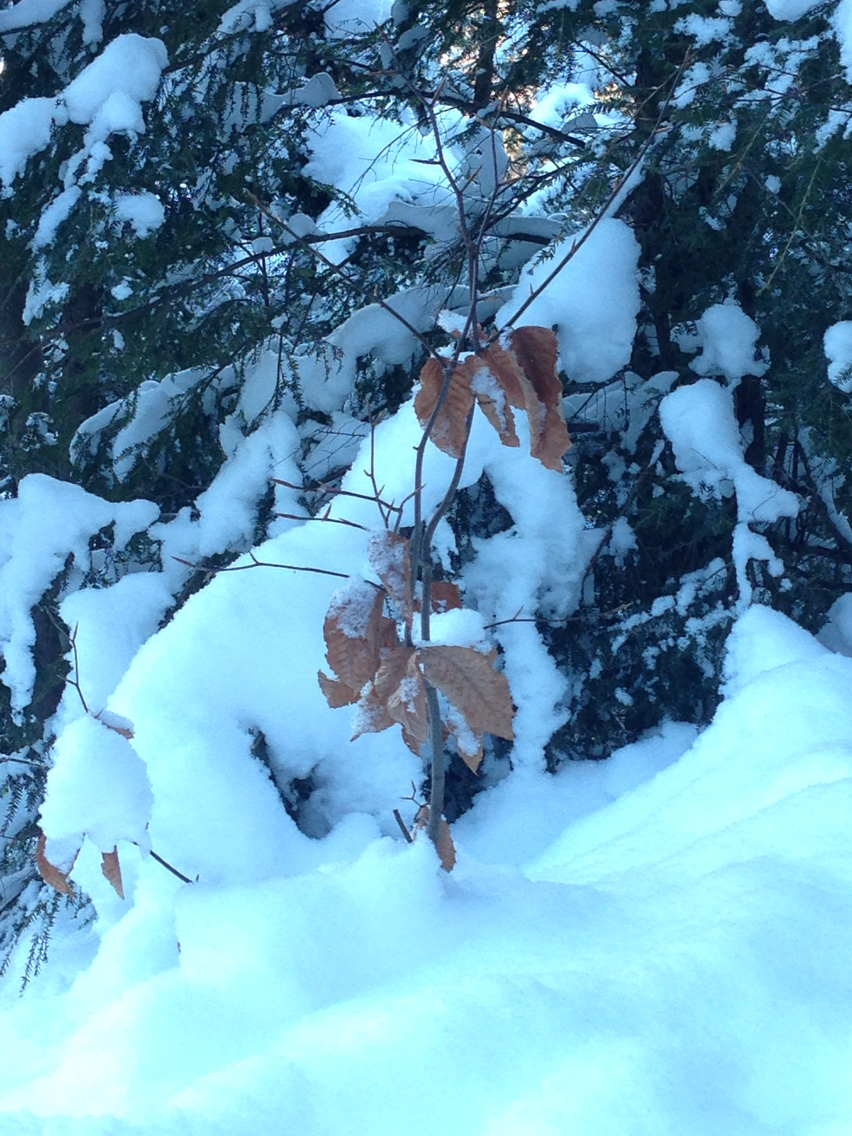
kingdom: Plantae
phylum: Tracheophyta
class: Magnoliopsida
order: Fagales
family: Fagaceae
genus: Fagus
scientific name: Fagus grandifolia
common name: American beech
